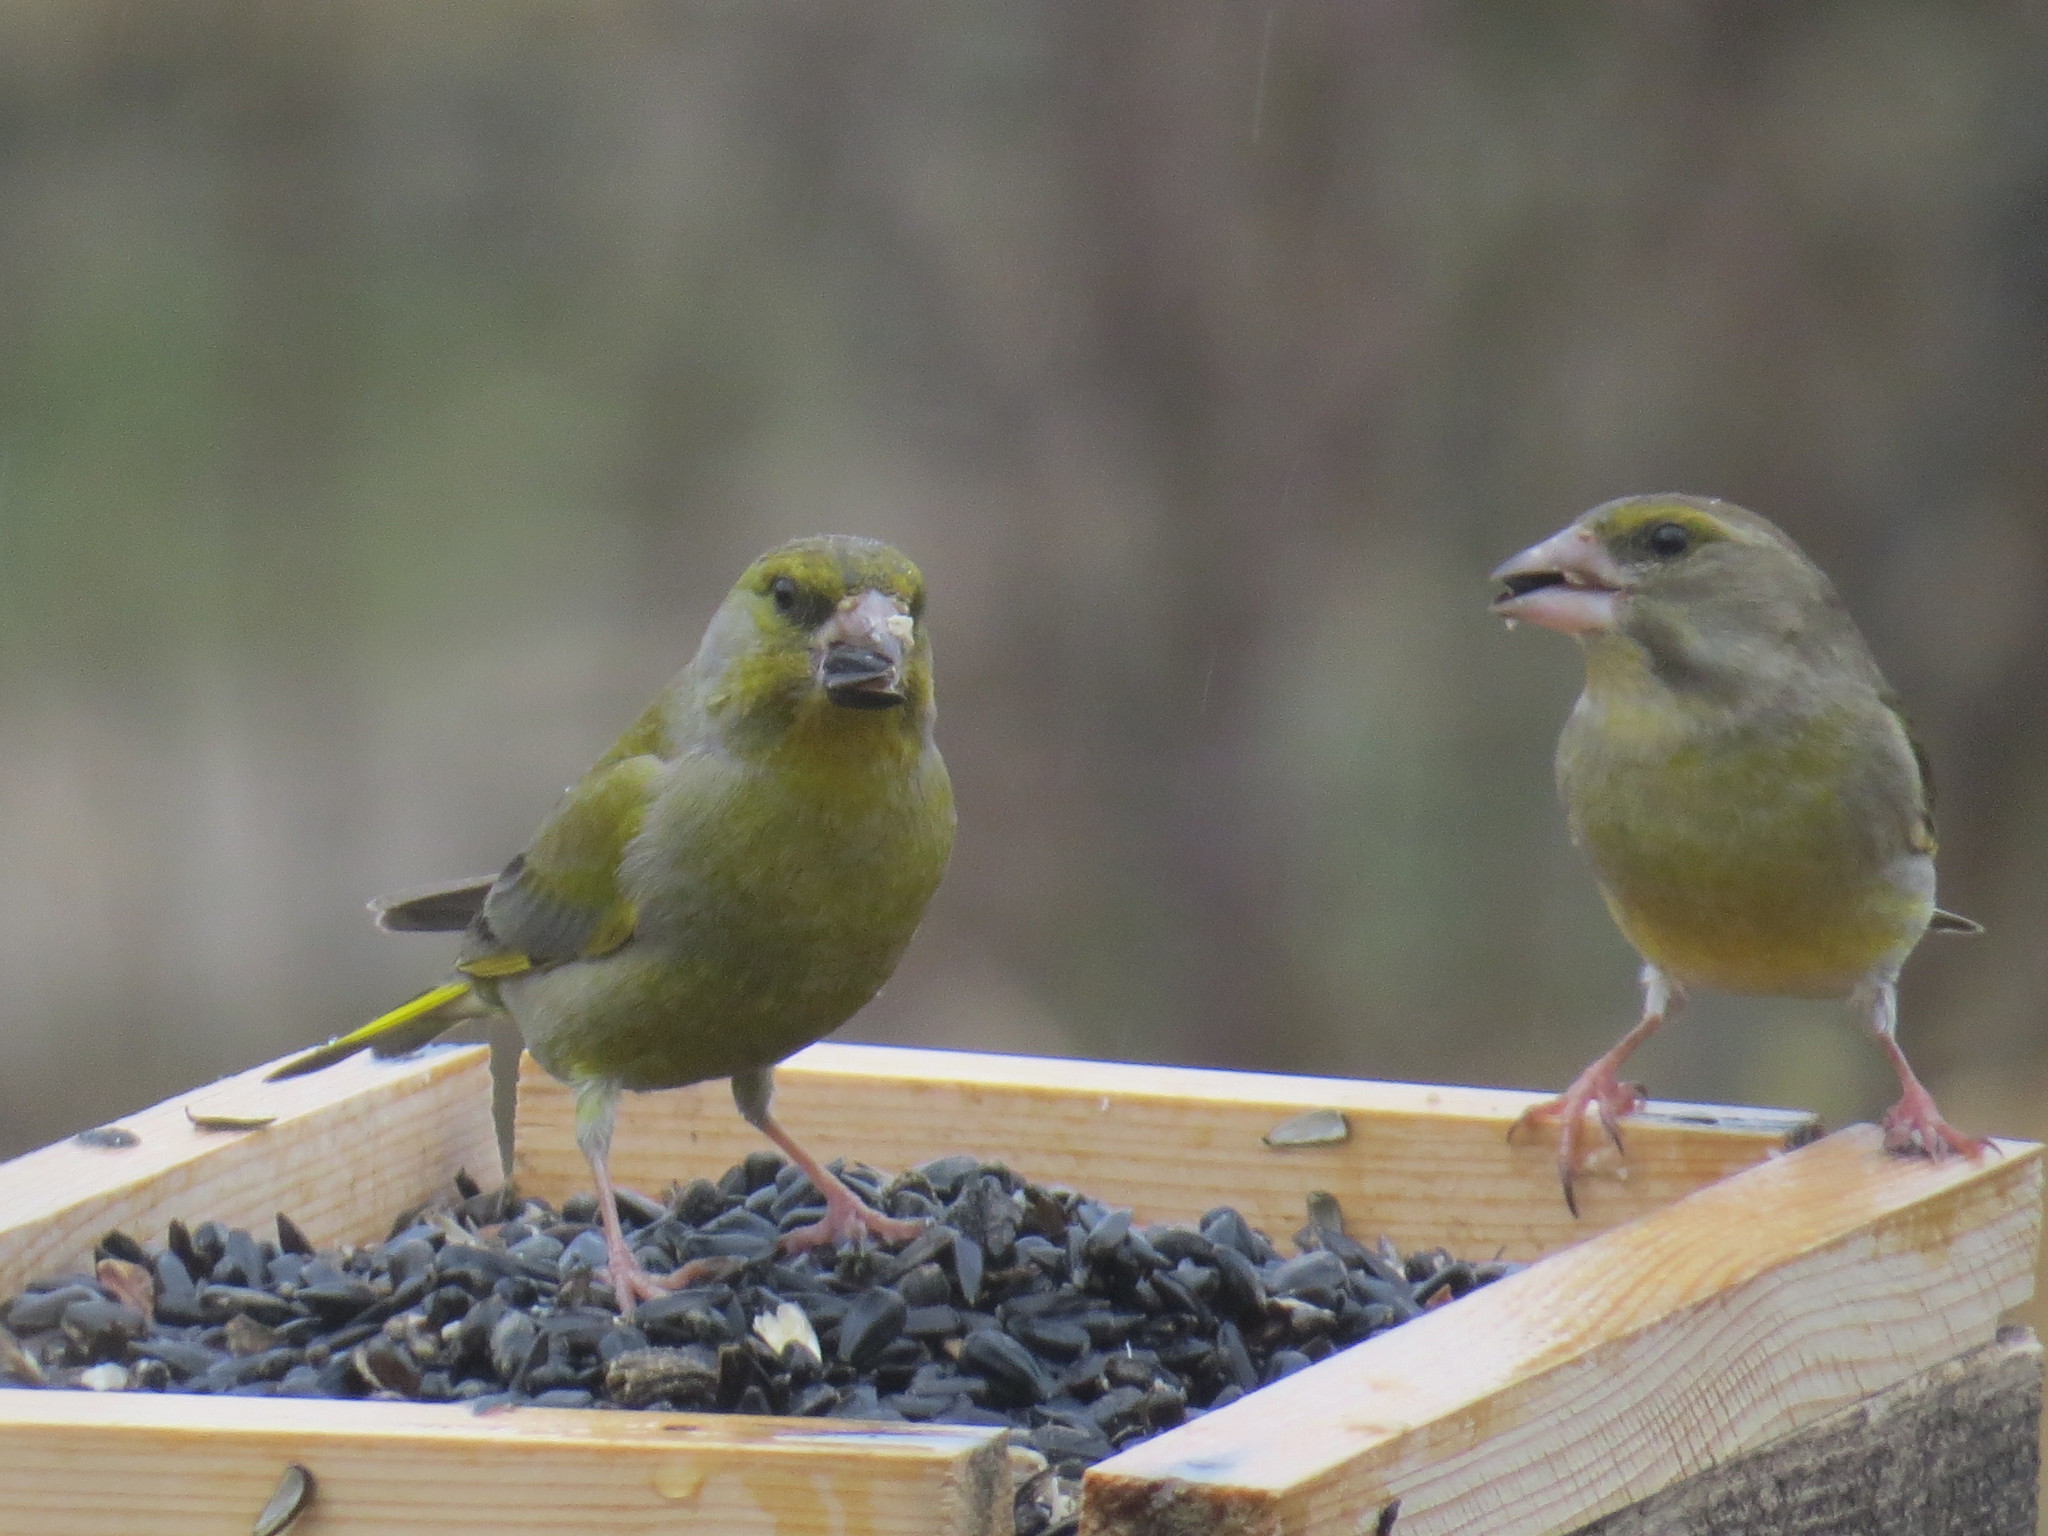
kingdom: Plantae
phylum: Tracheophyta
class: Liliopsida
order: Poales
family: Poaceae
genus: Chloris
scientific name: Chloris chloris
